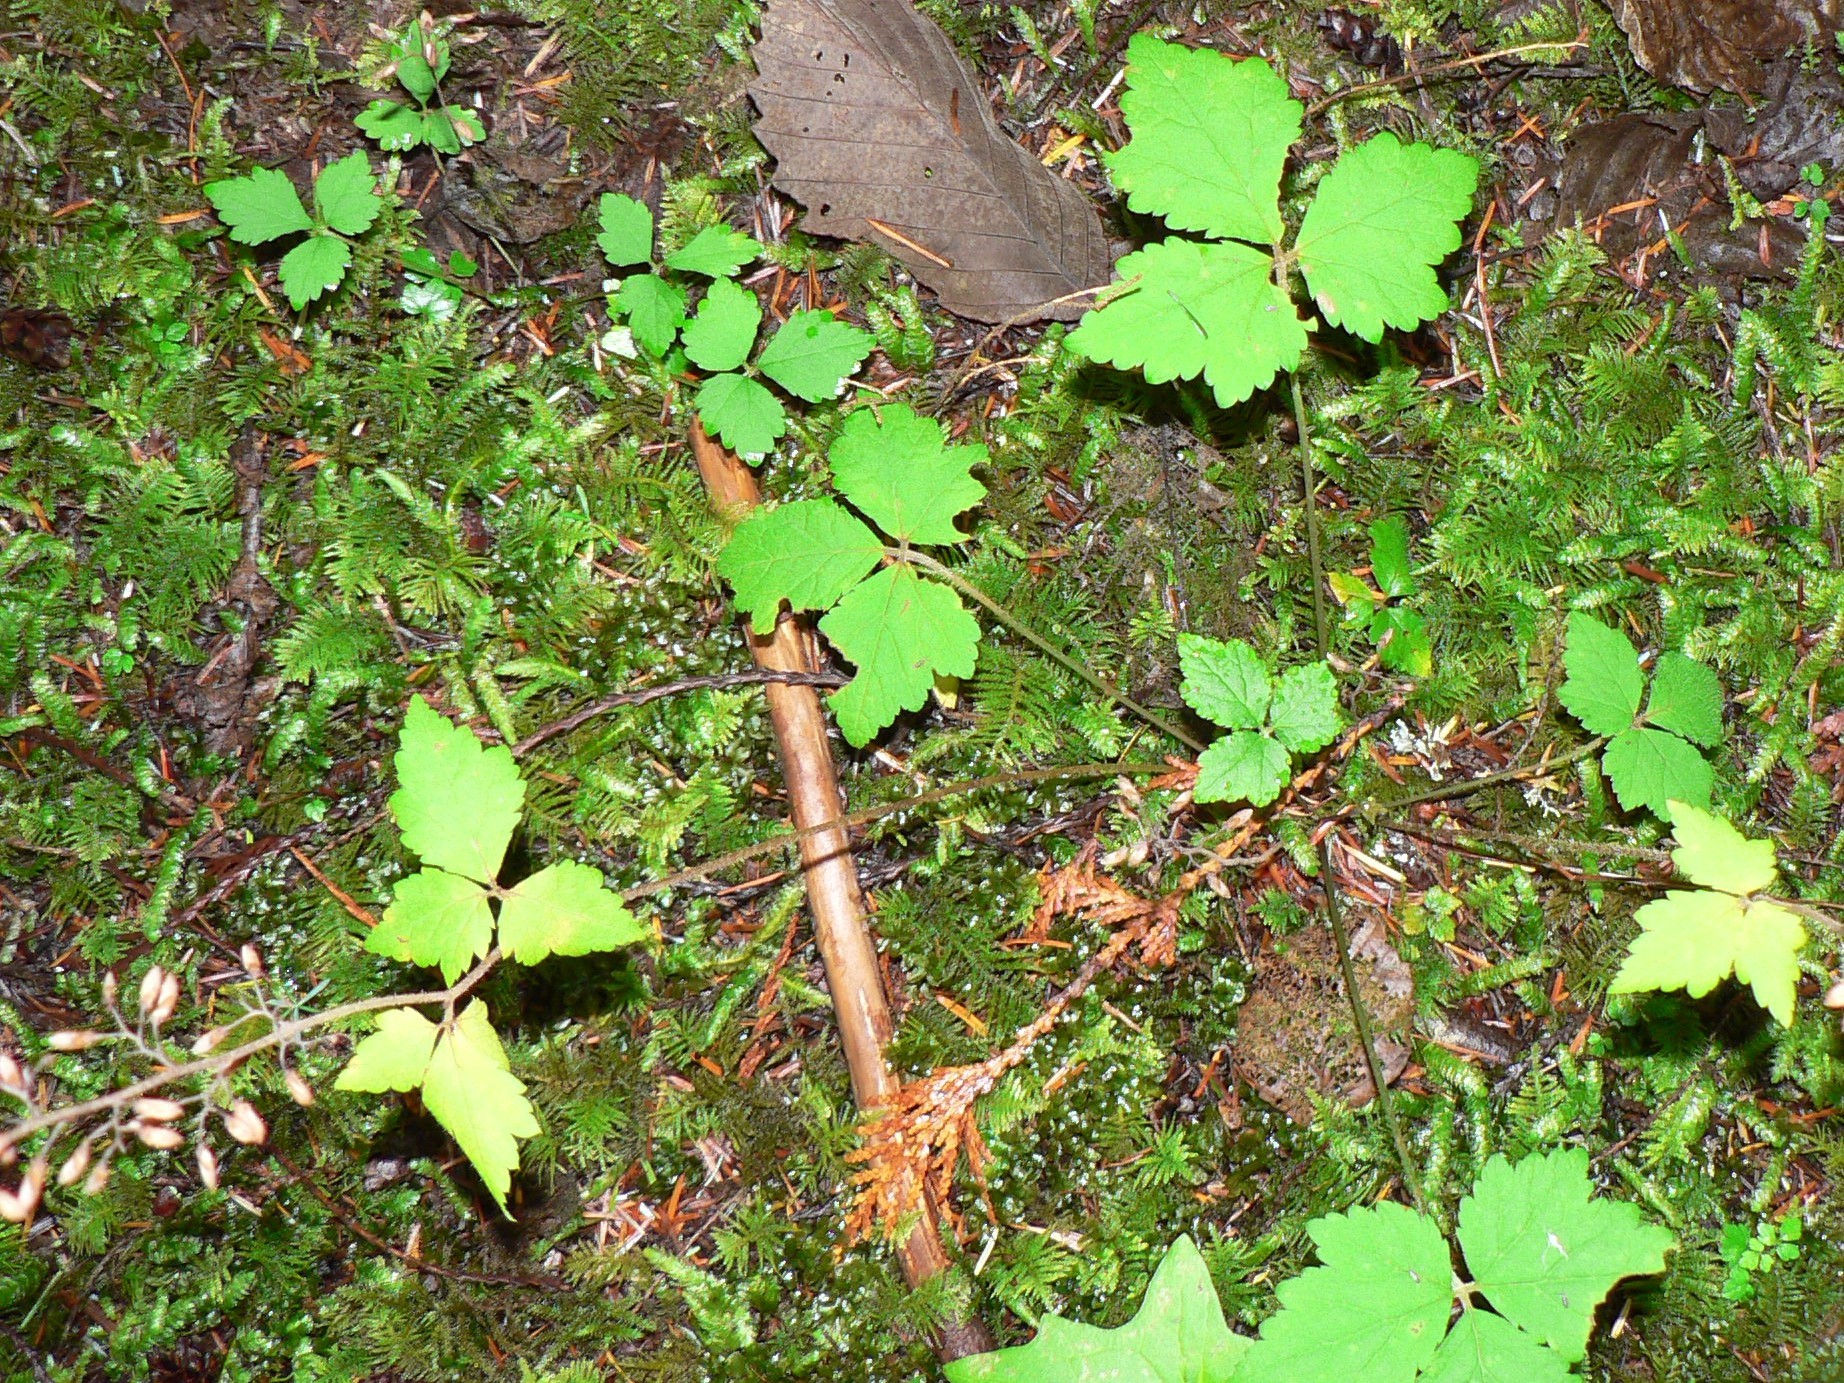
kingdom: Plantae
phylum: Tracheophyta
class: Magnoliopsida
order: Saxifragales
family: Saxifragaceae
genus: Tiarella
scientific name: Tiarella trifoliata
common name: Sugar-scoop
